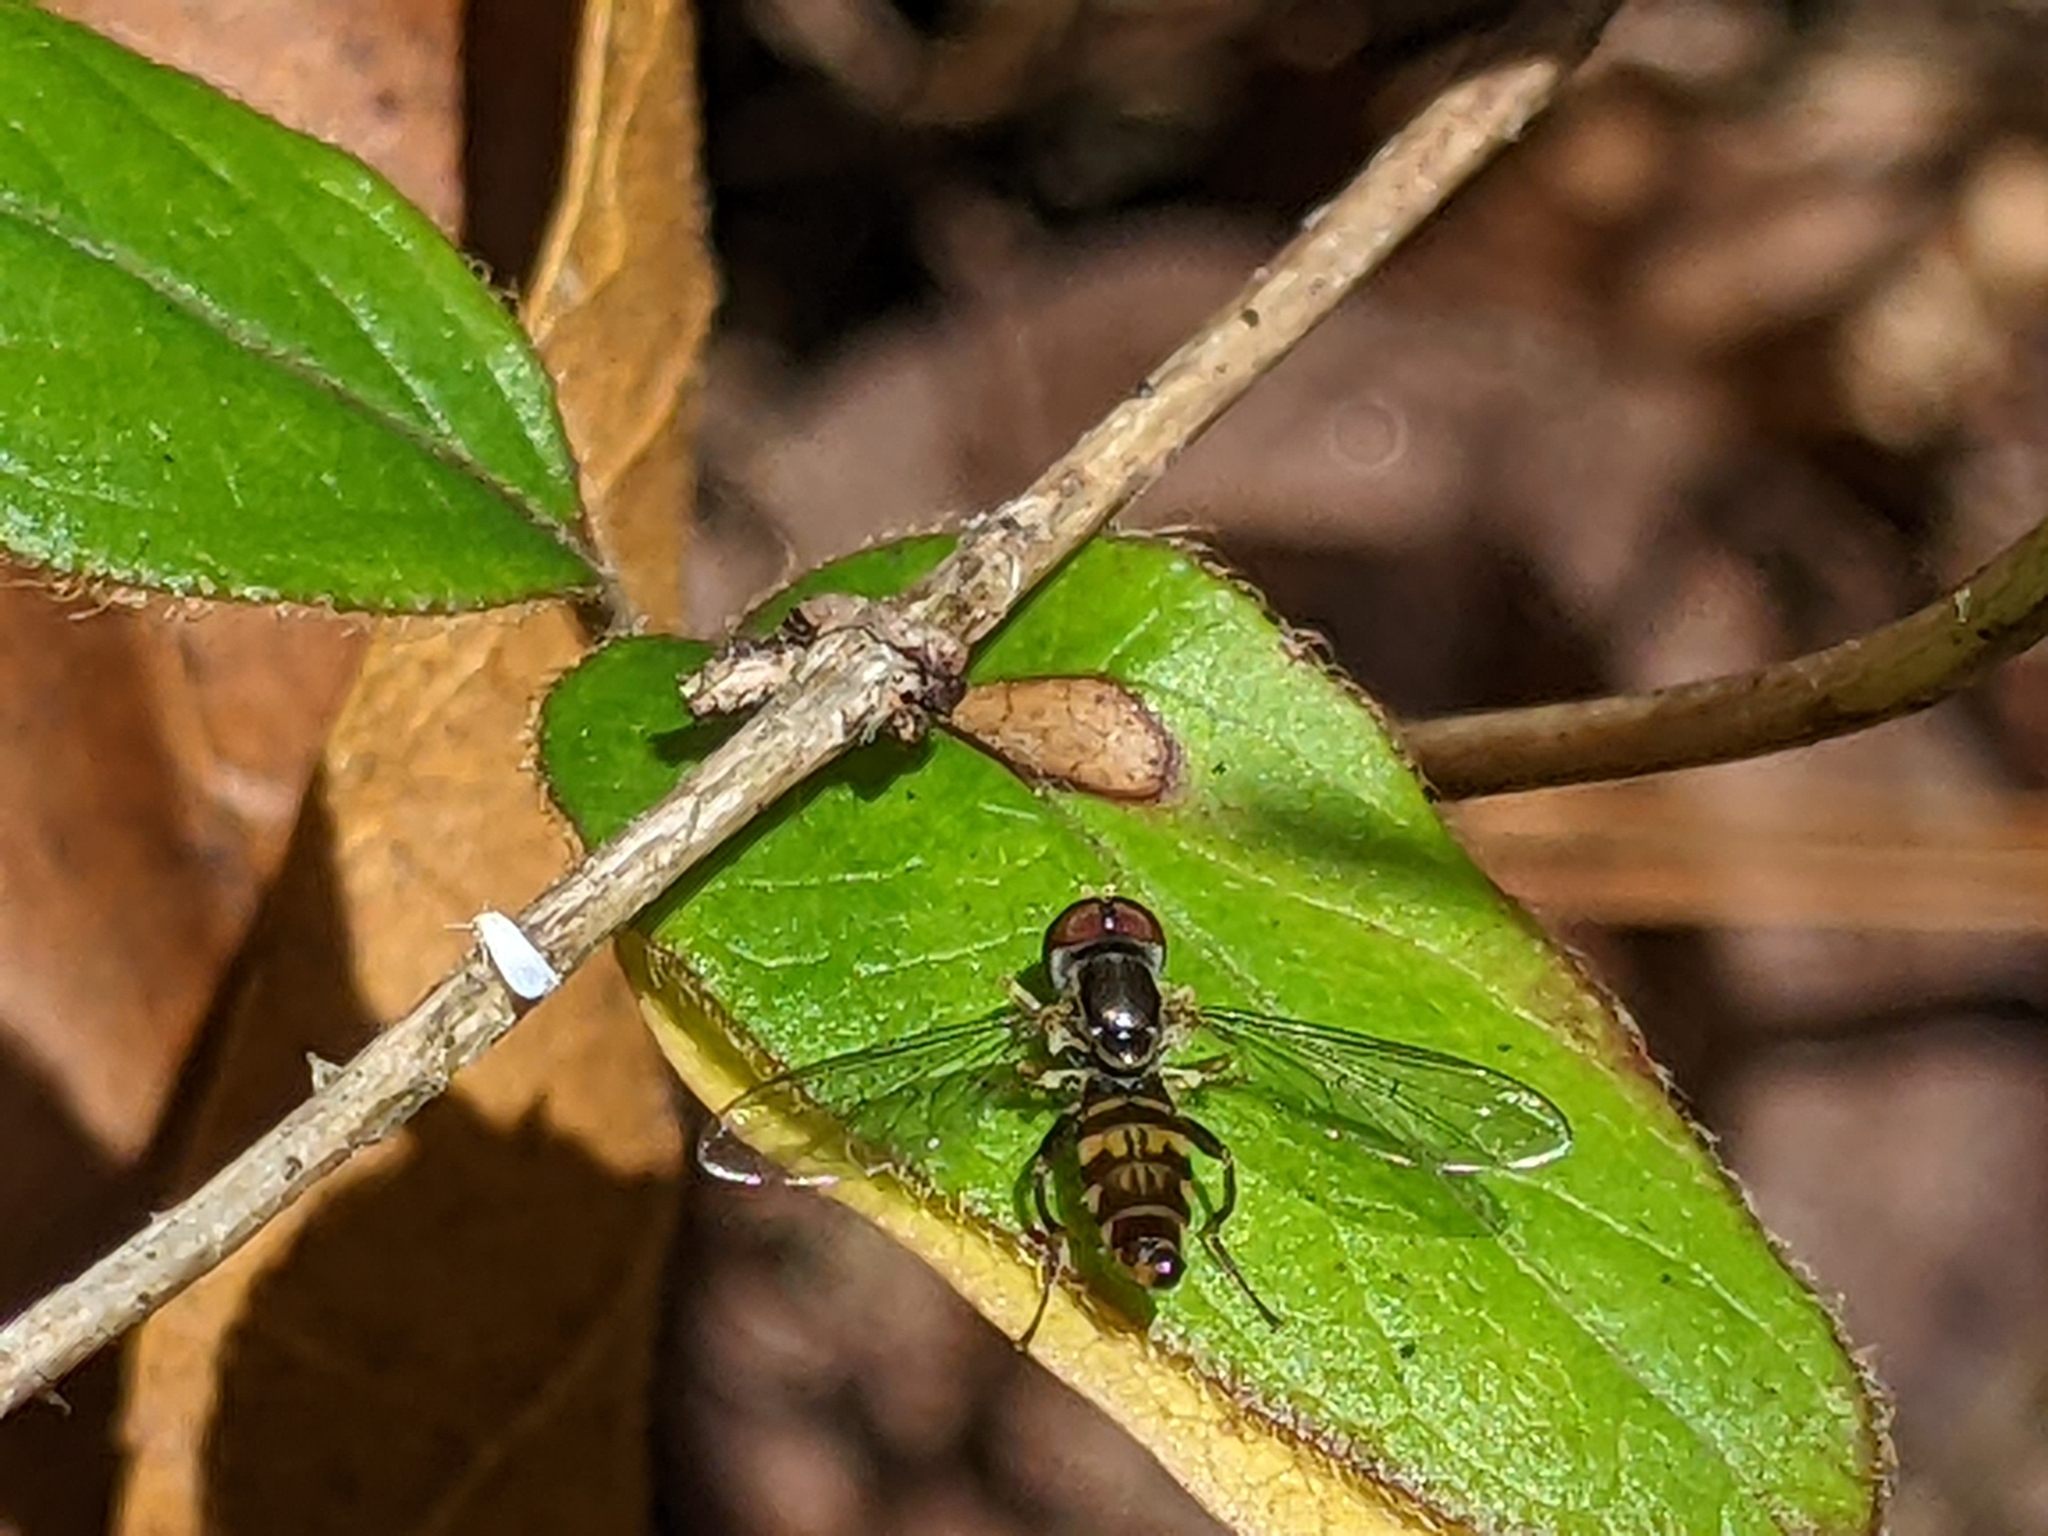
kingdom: Animalia
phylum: Arthropoda
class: Insecta
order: Diptera
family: Syrphidae
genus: Toxomerus
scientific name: Toxomerus geminatus
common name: Eastern calligrapher
